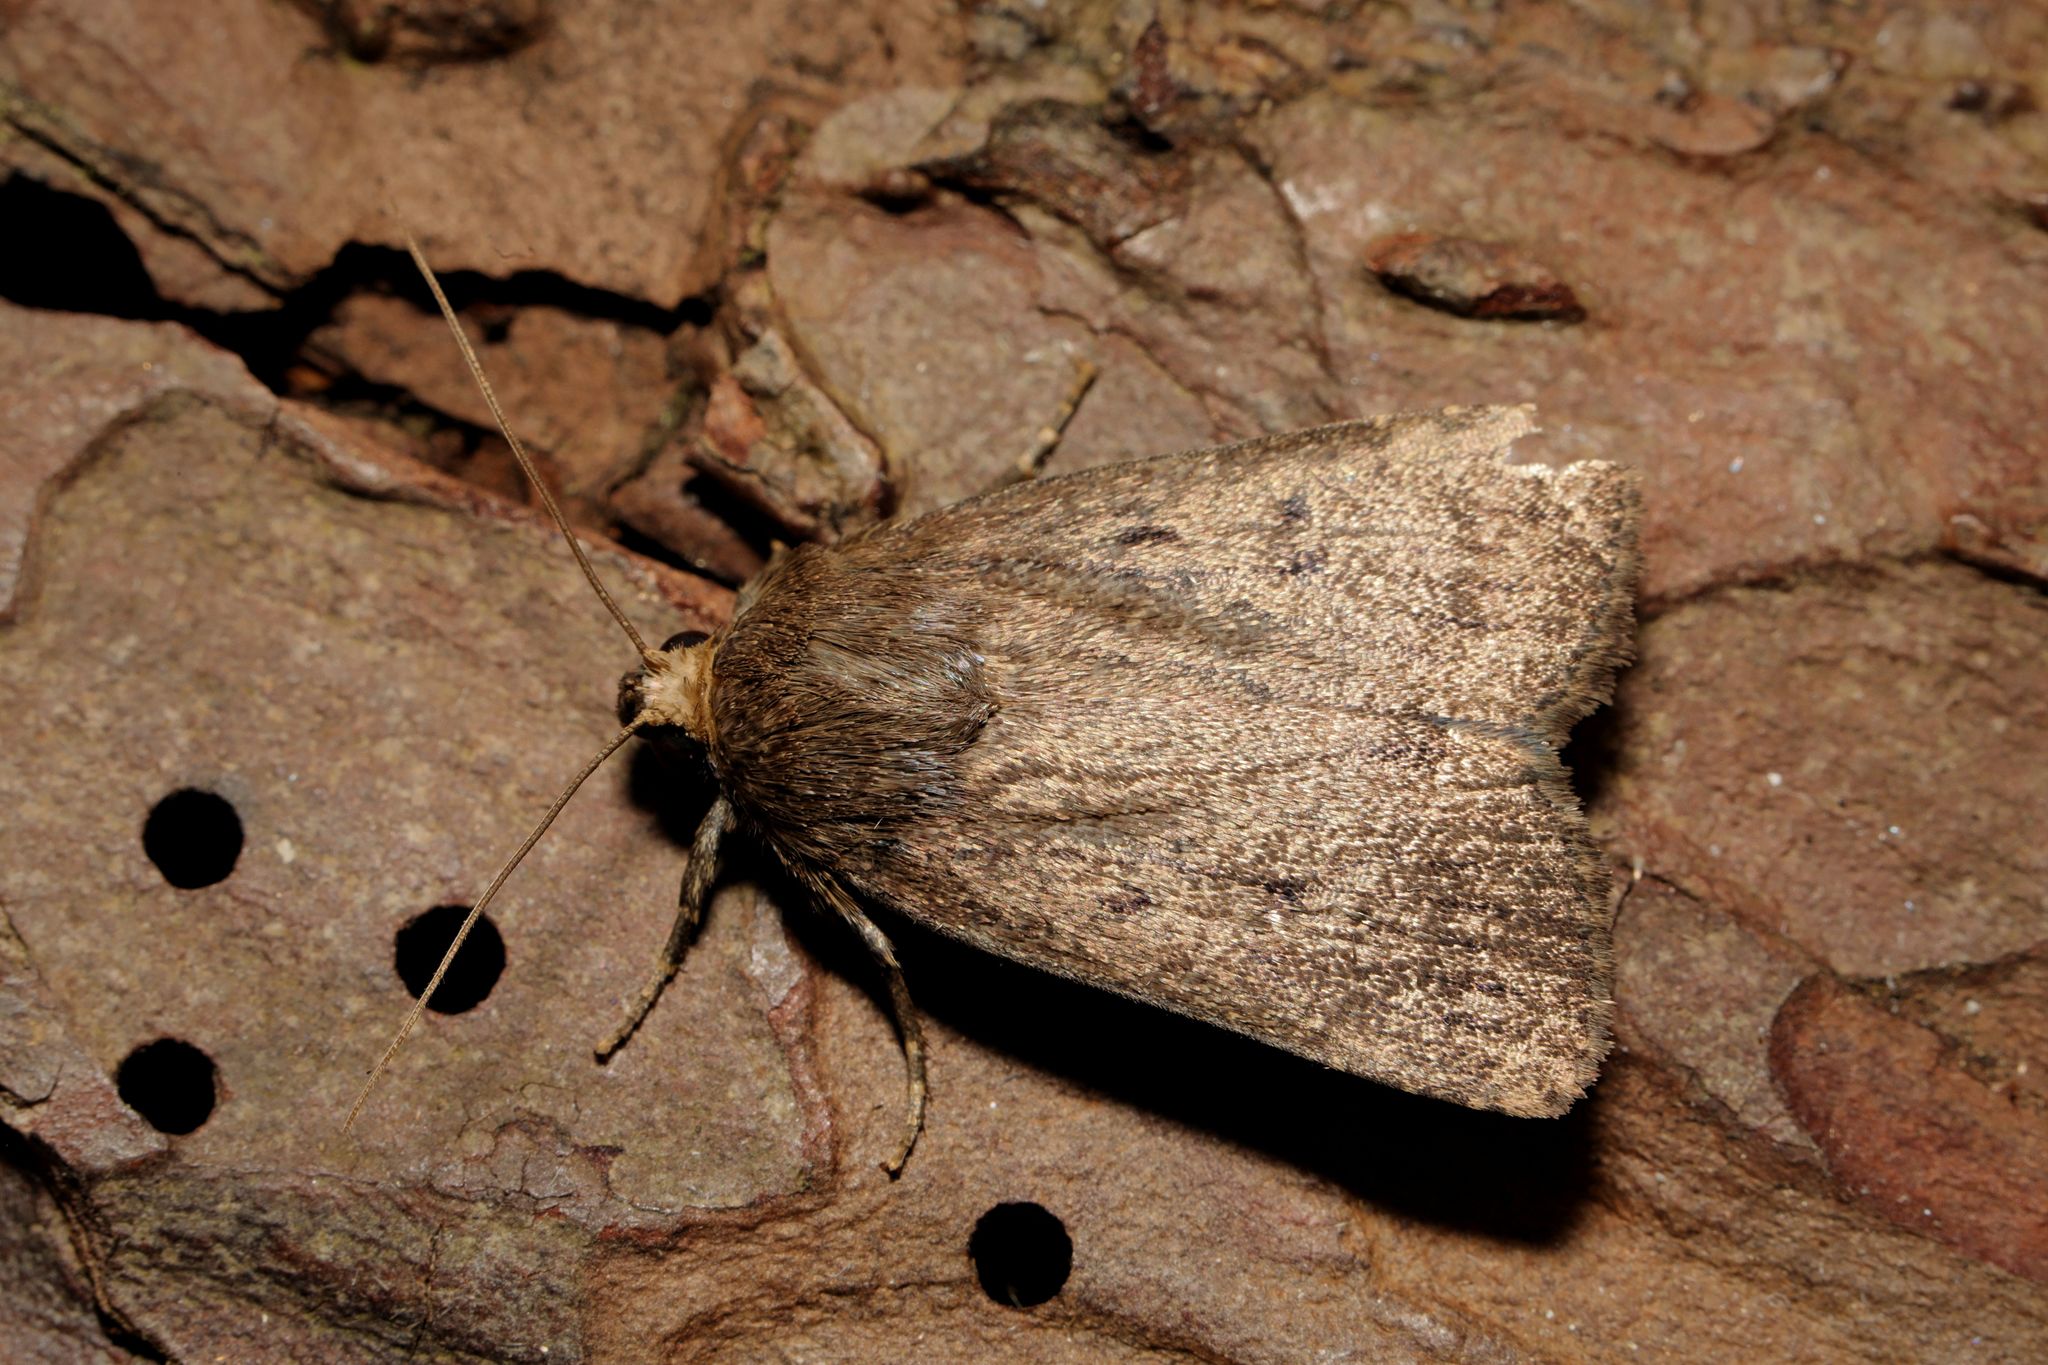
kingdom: Animalia
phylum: Arthropoda
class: Insecta
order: Lepidoptera
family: Noctuidae
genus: Amphipyra
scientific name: Amphipyra tragopoginis
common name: Mouse moth
